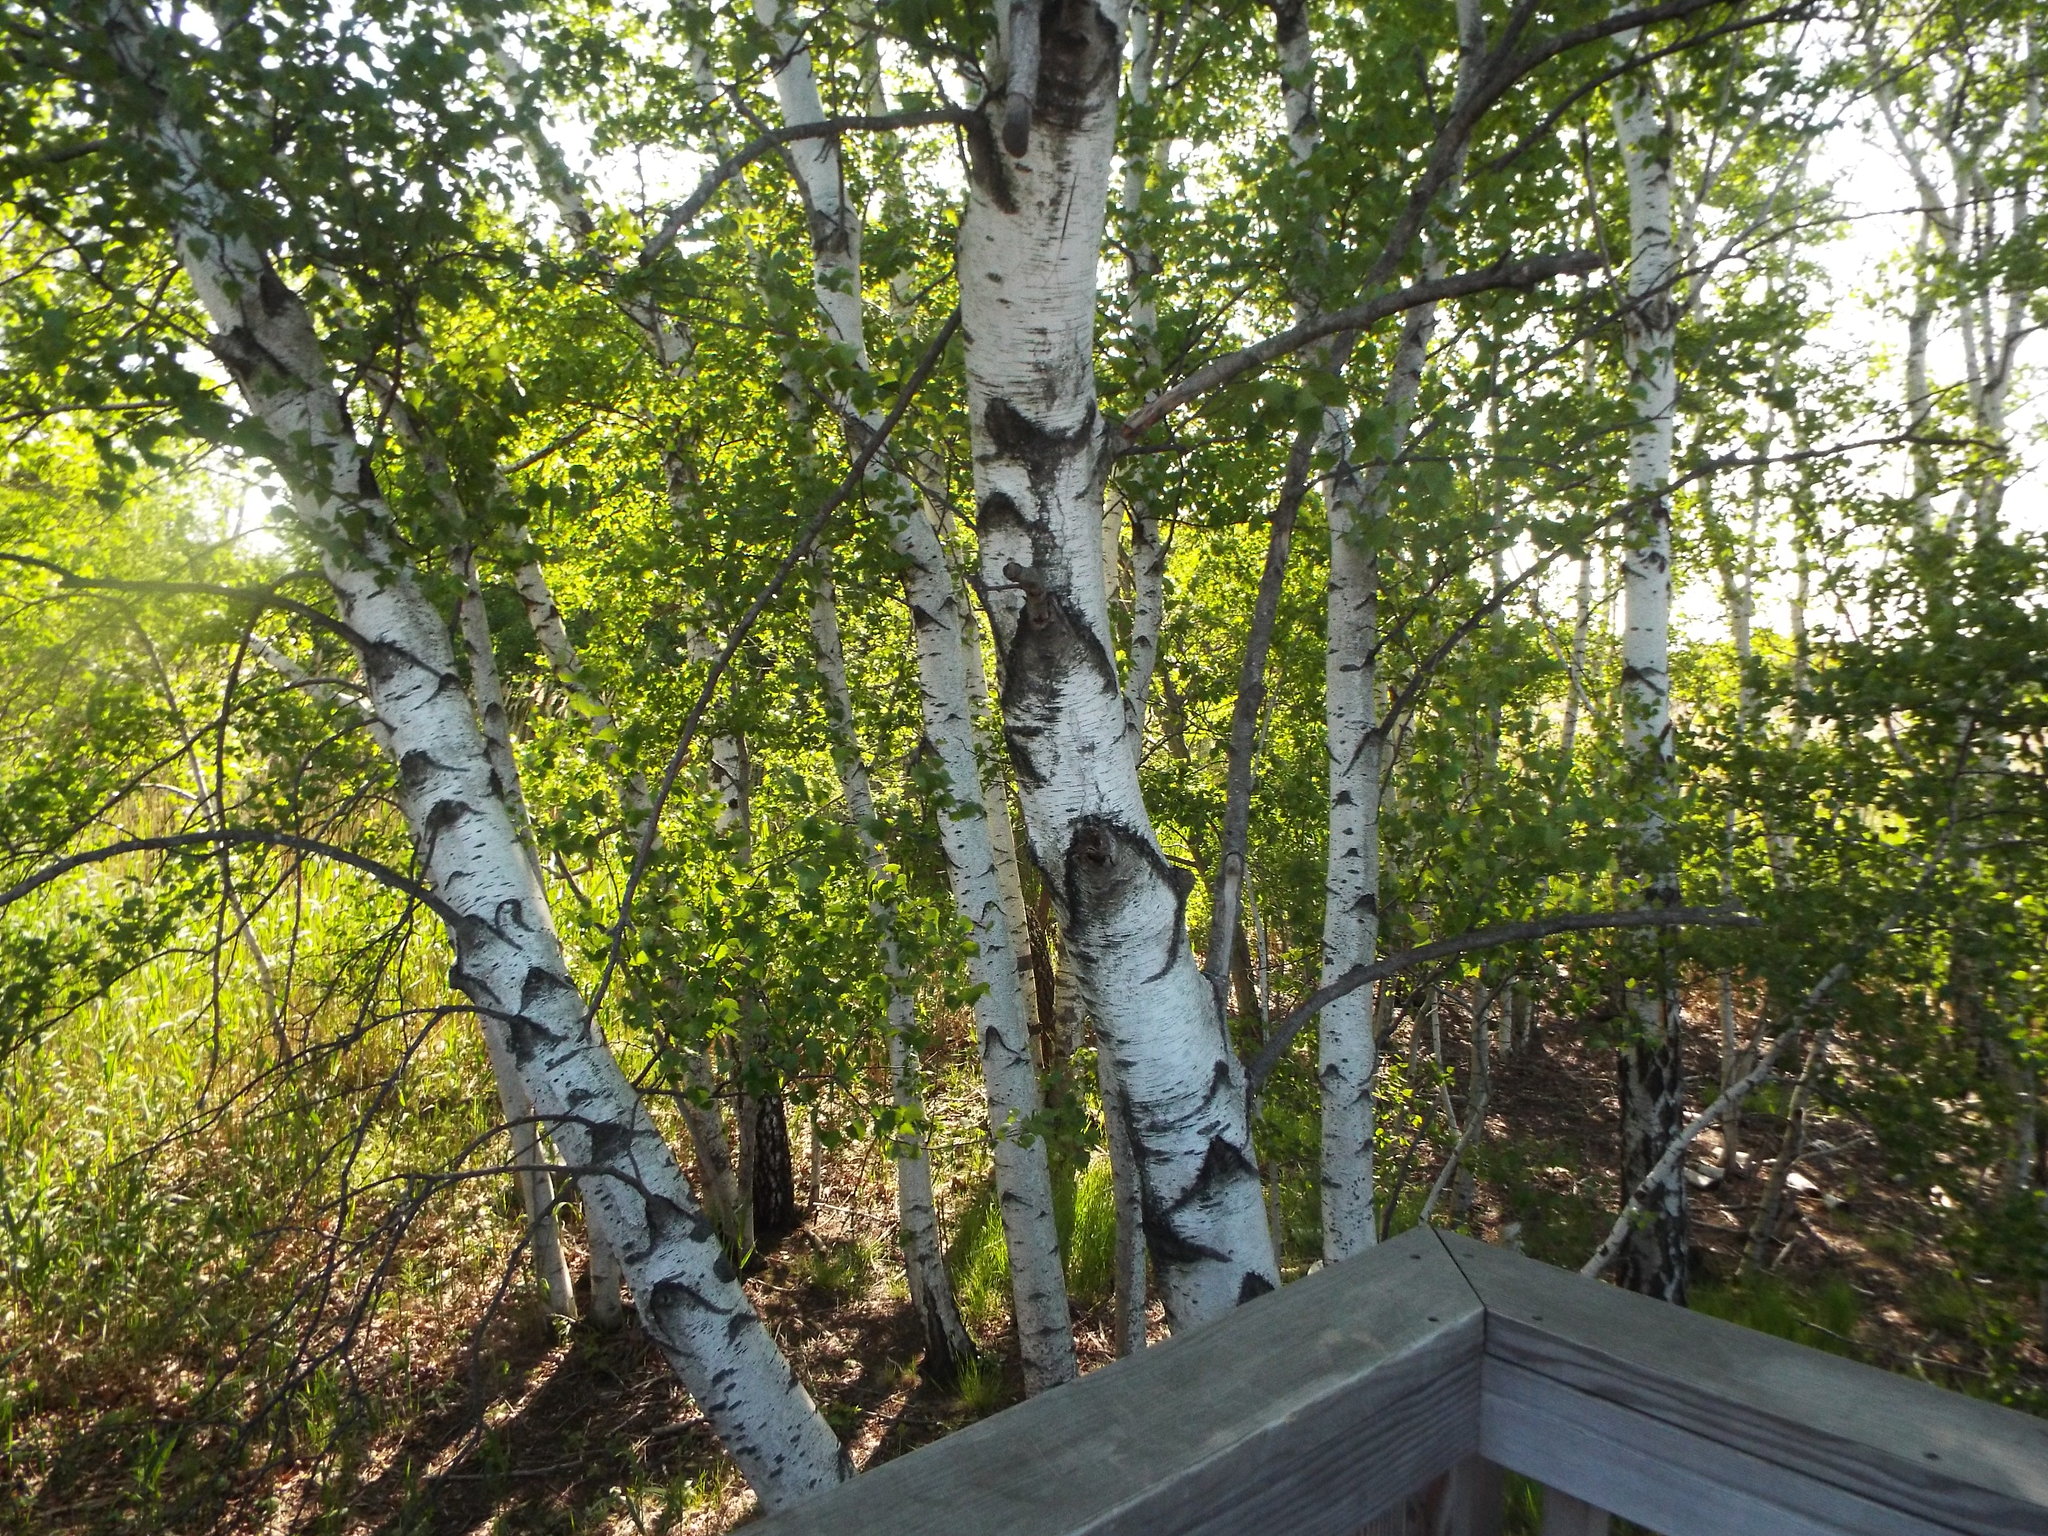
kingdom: Plantae
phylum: Tracheophyta
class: Magnoliopsida
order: Fagales
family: Betulaceae
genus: Betula
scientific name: Betula populifolia
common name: Fire birch
